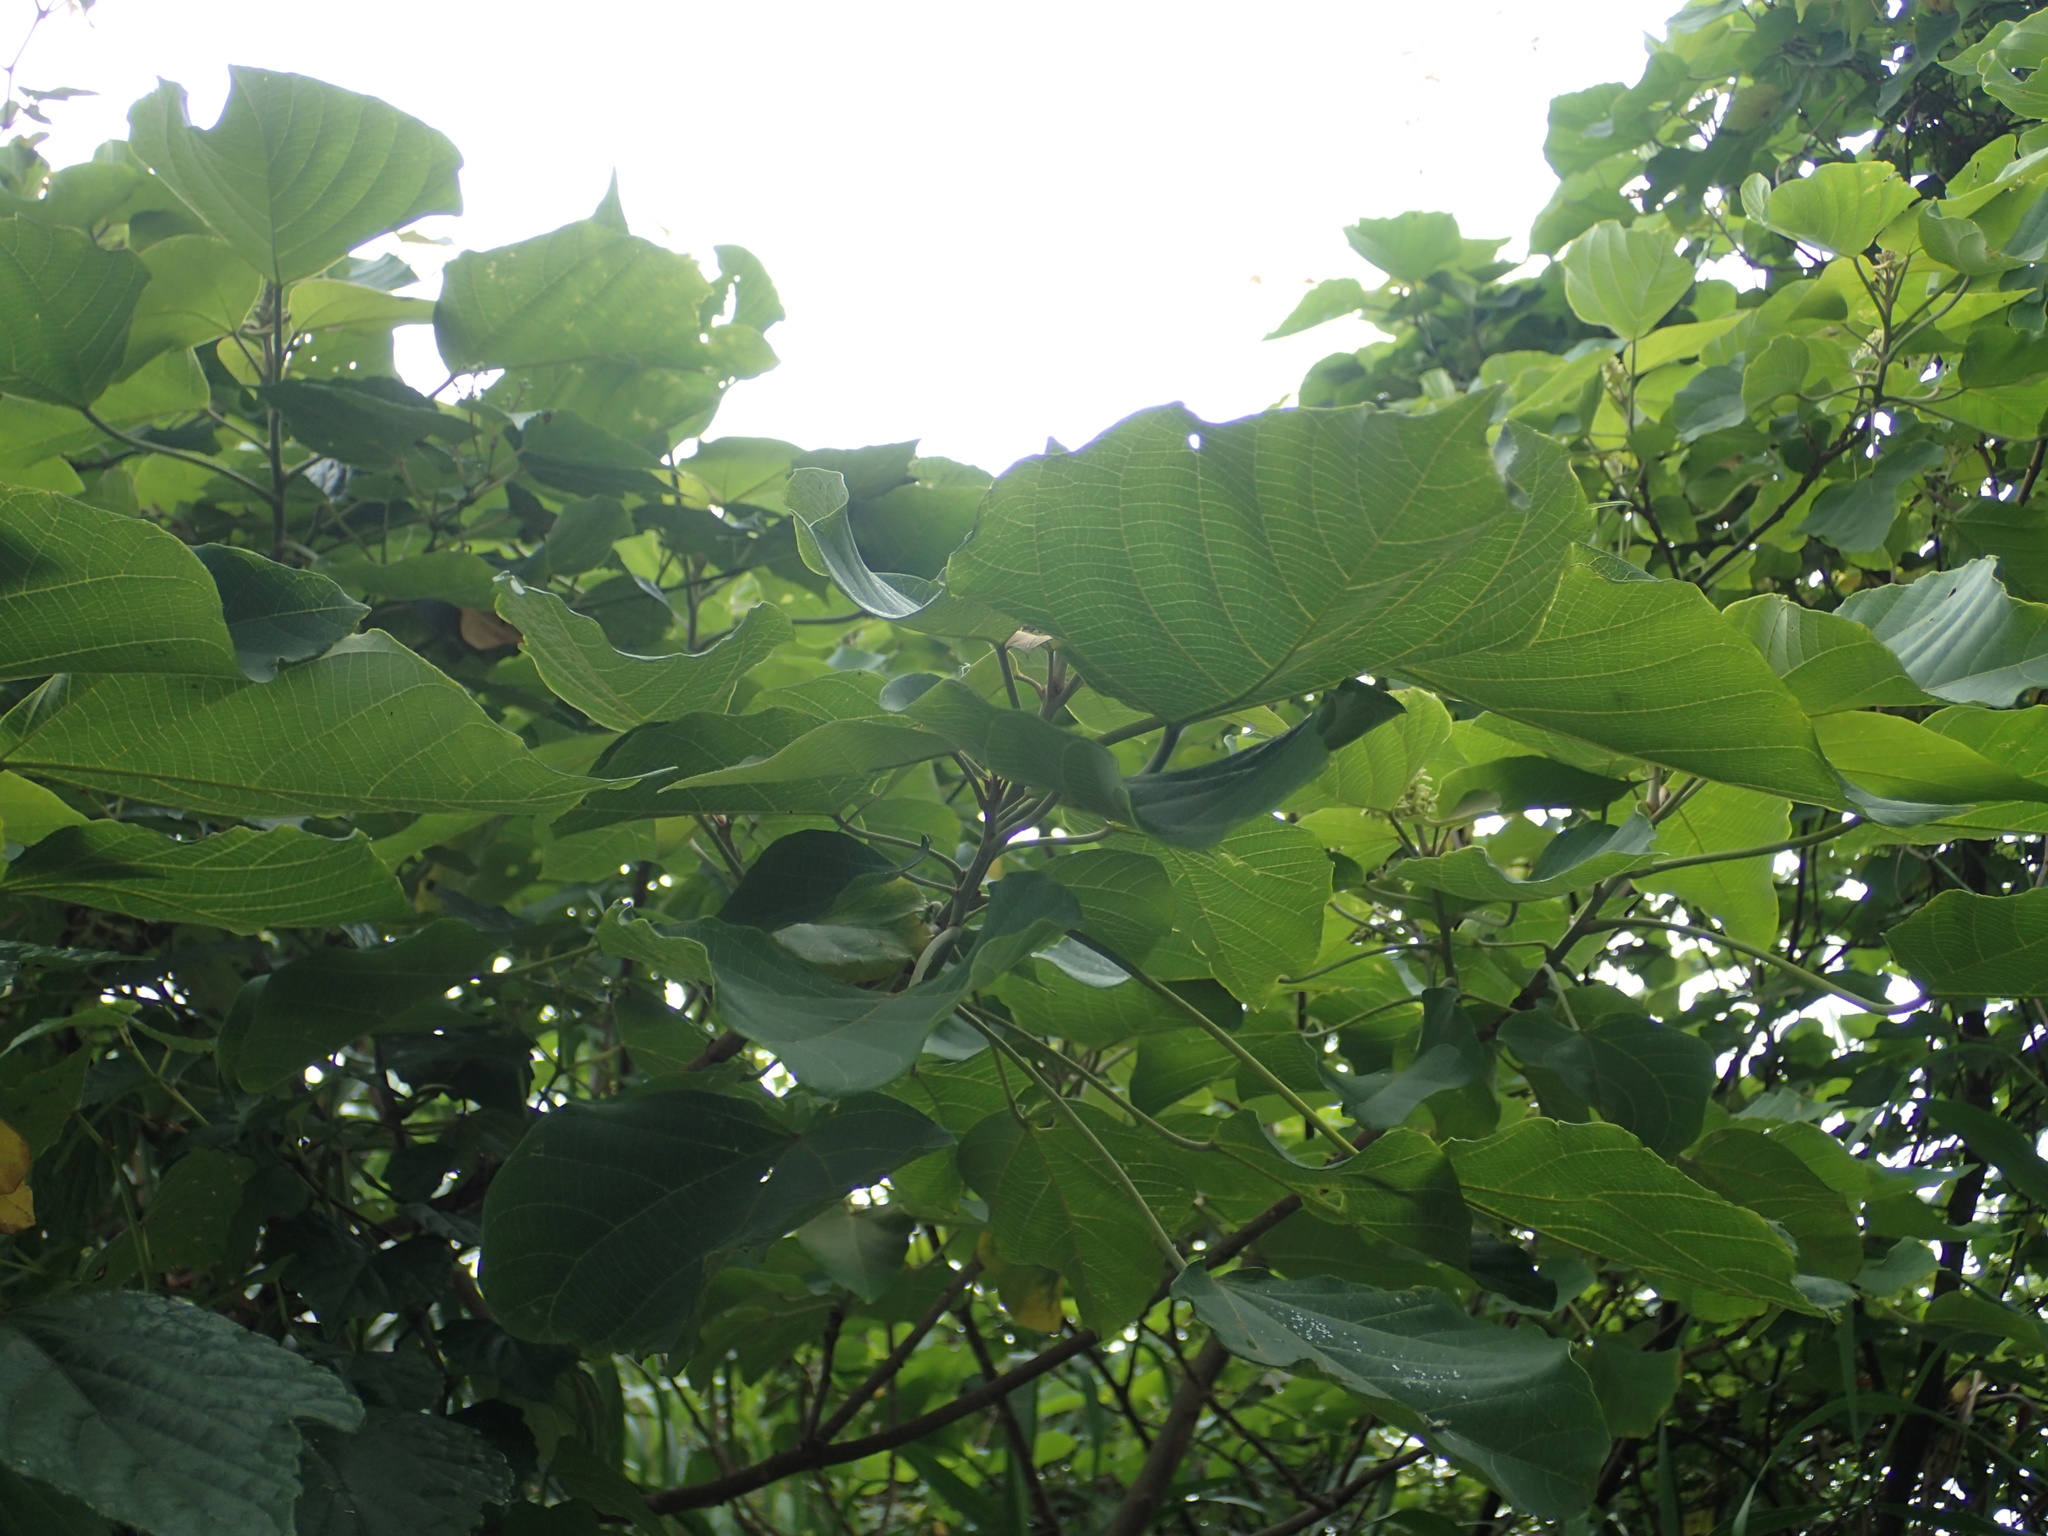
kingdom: Plantae
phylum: Tracheophyta
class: Magnoliopsida
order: Malpighiales
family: Euphorbiaceae
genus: Mallotus
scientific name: Mallotus japonicus
